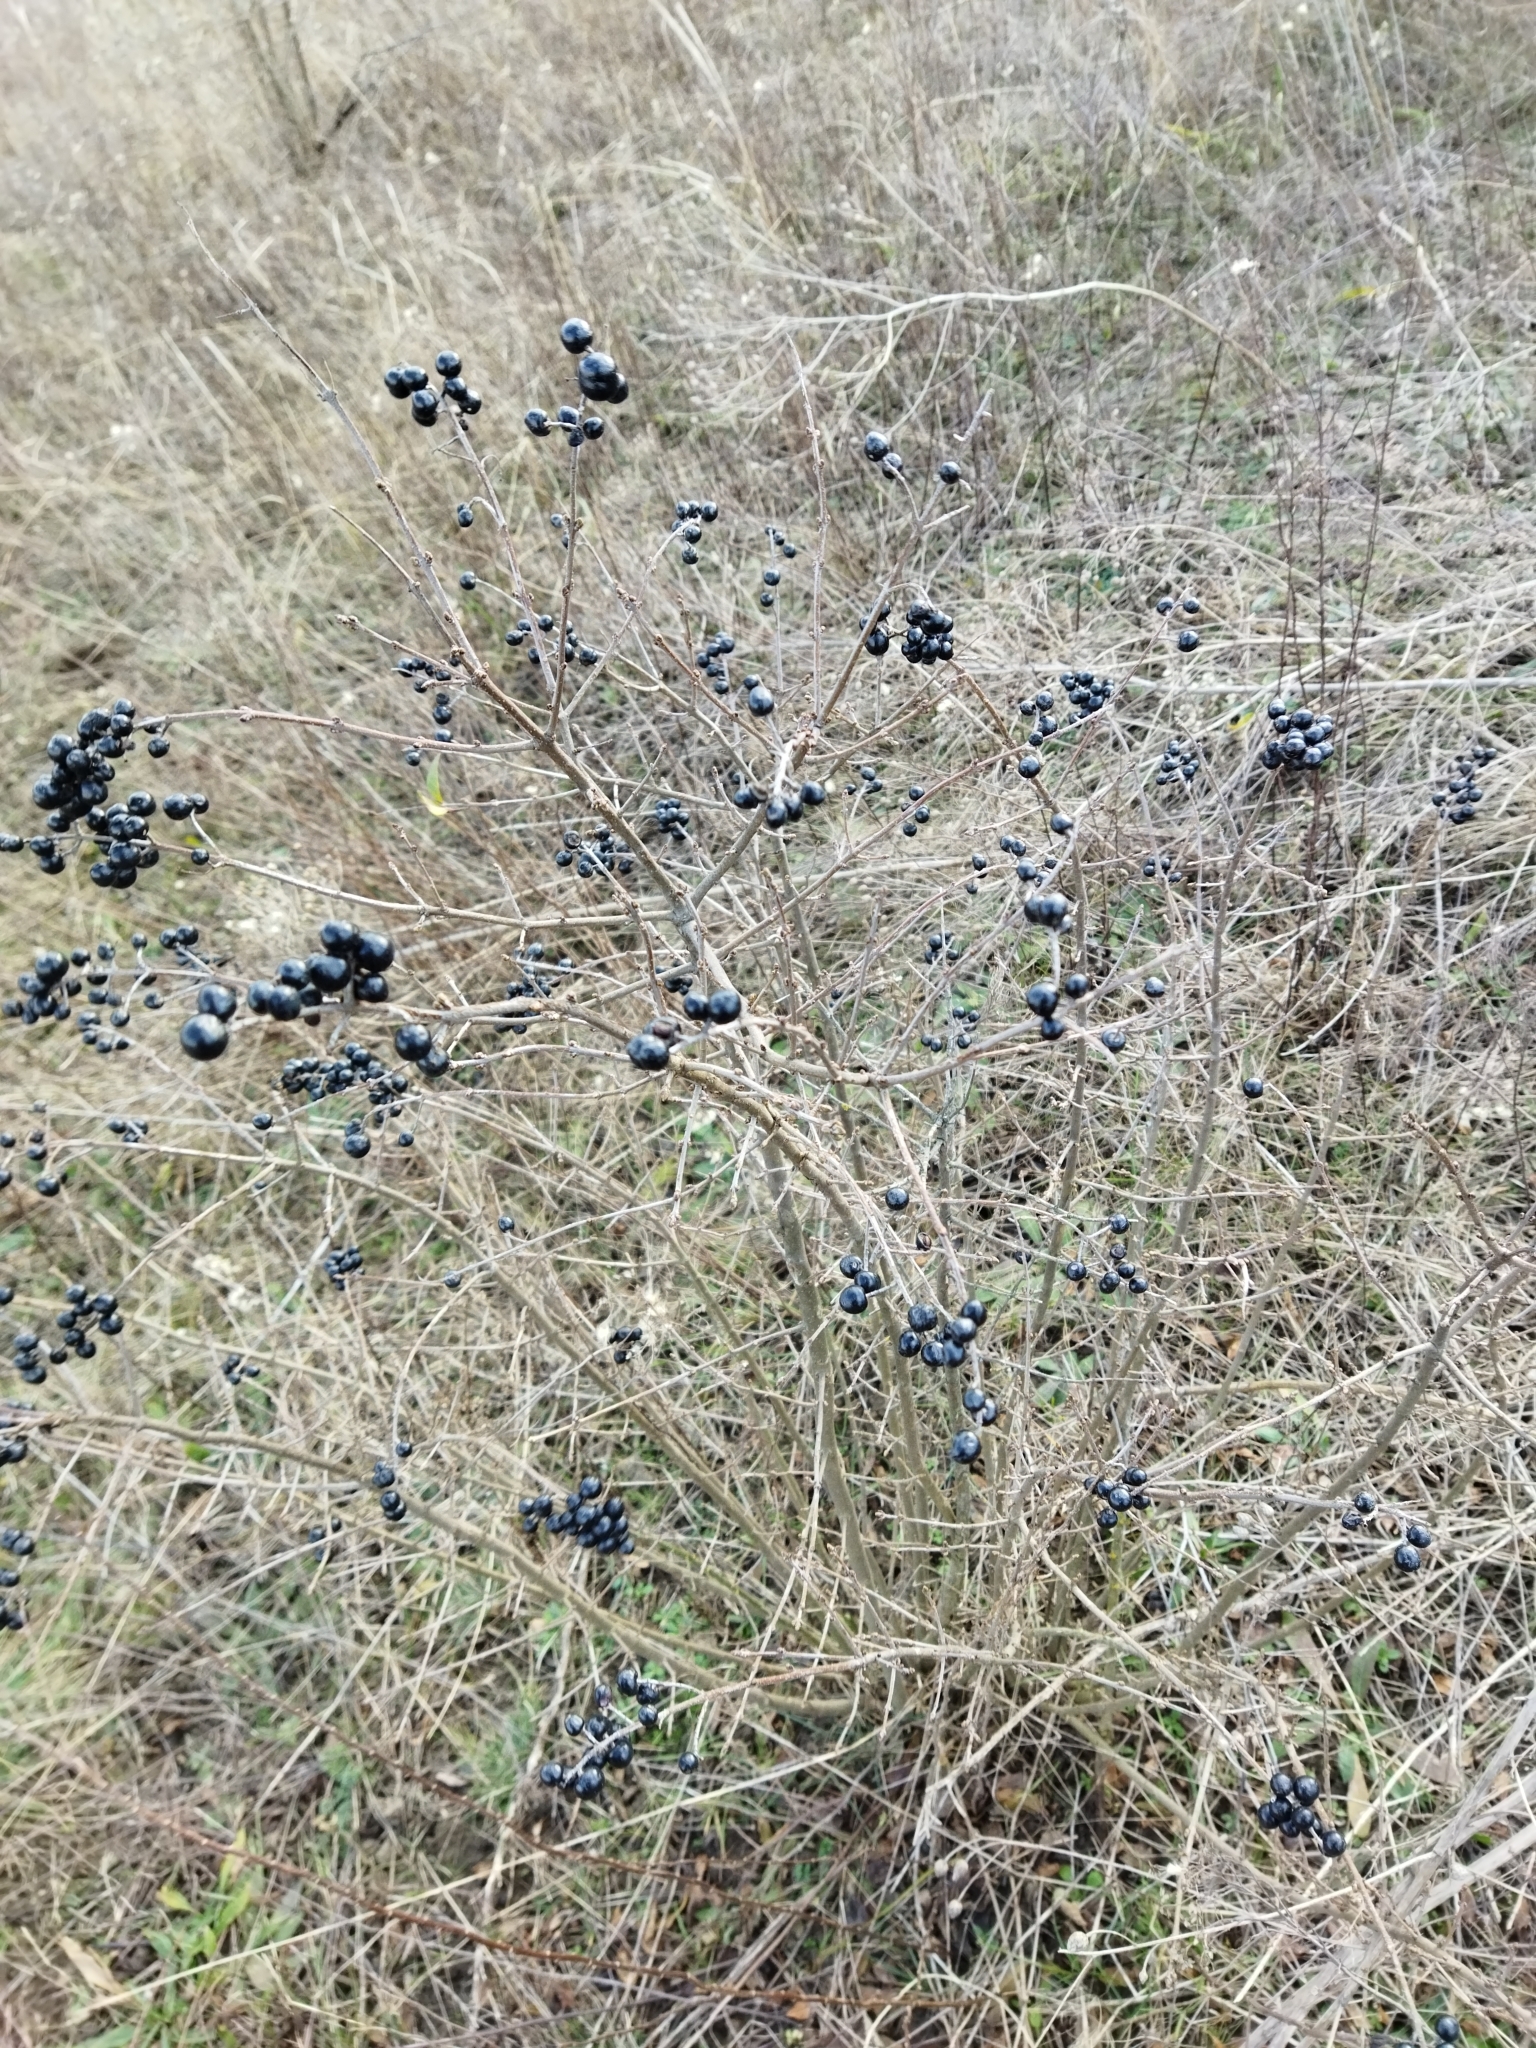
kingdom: Plantae
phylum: Tracheophyta
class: Magnoliopsida
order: Lamiales
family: Oleaceae
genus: Ligustrum
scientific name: Ligustrum vulgare
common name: Wild privet
